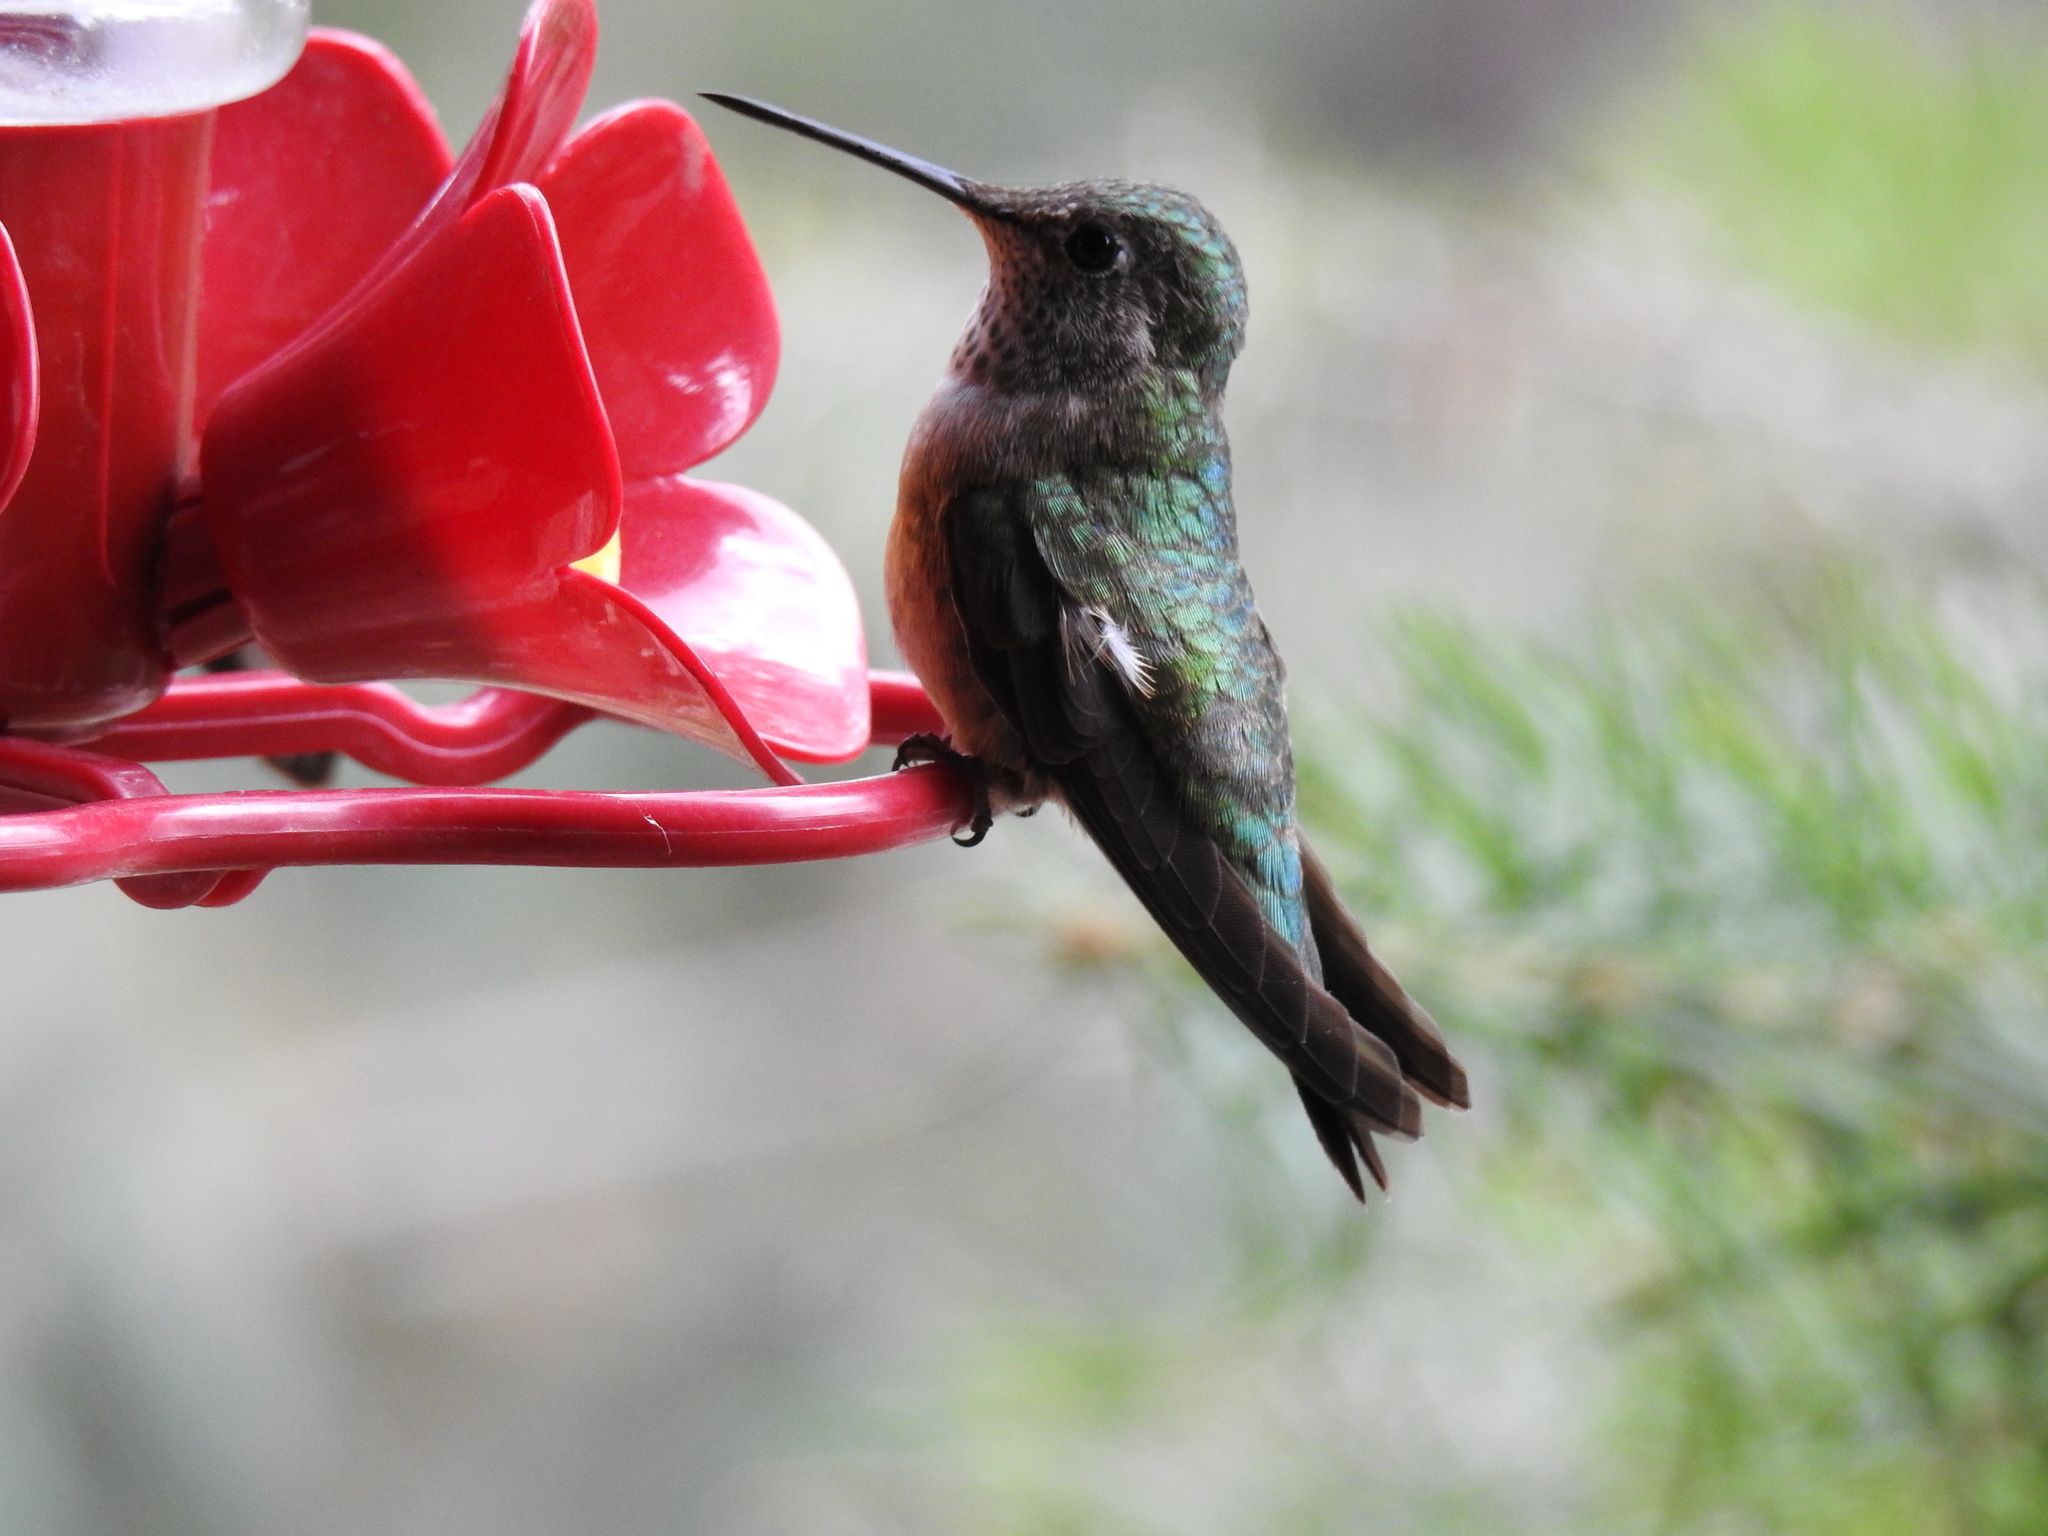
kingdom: Animalia
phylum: Chordata
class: Aves
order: Apodiformes
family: Trochilidae
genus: Selasphorus
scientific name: Selasphorus platycercus
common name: Broad-tailed hummingbird
